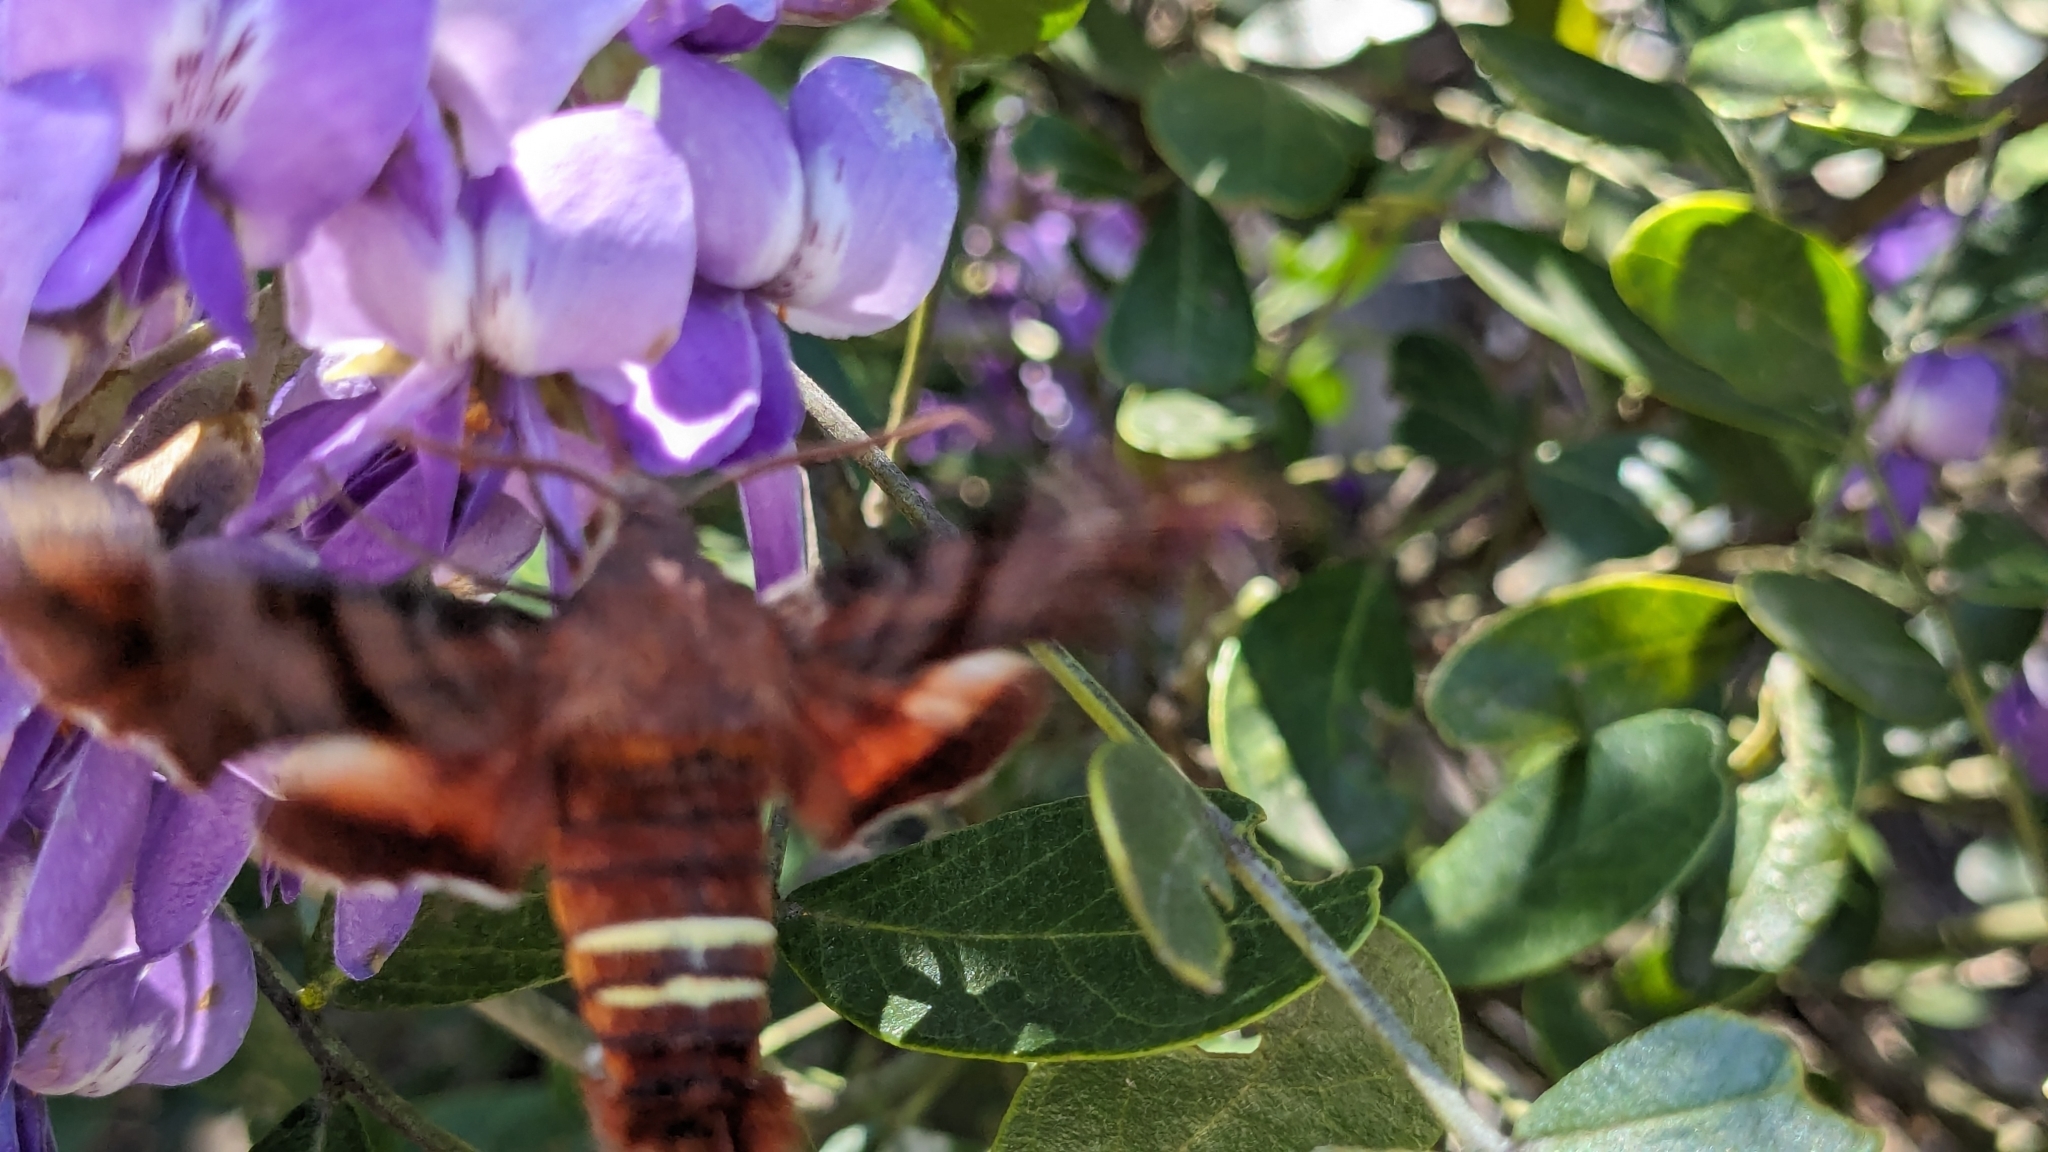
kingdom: Animalia
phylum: Arthropoda
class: Insecta
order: Lepidoptera
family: Sphingidae
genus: Amphion
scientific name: Amphion floridensis
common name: Nessus sphinx
